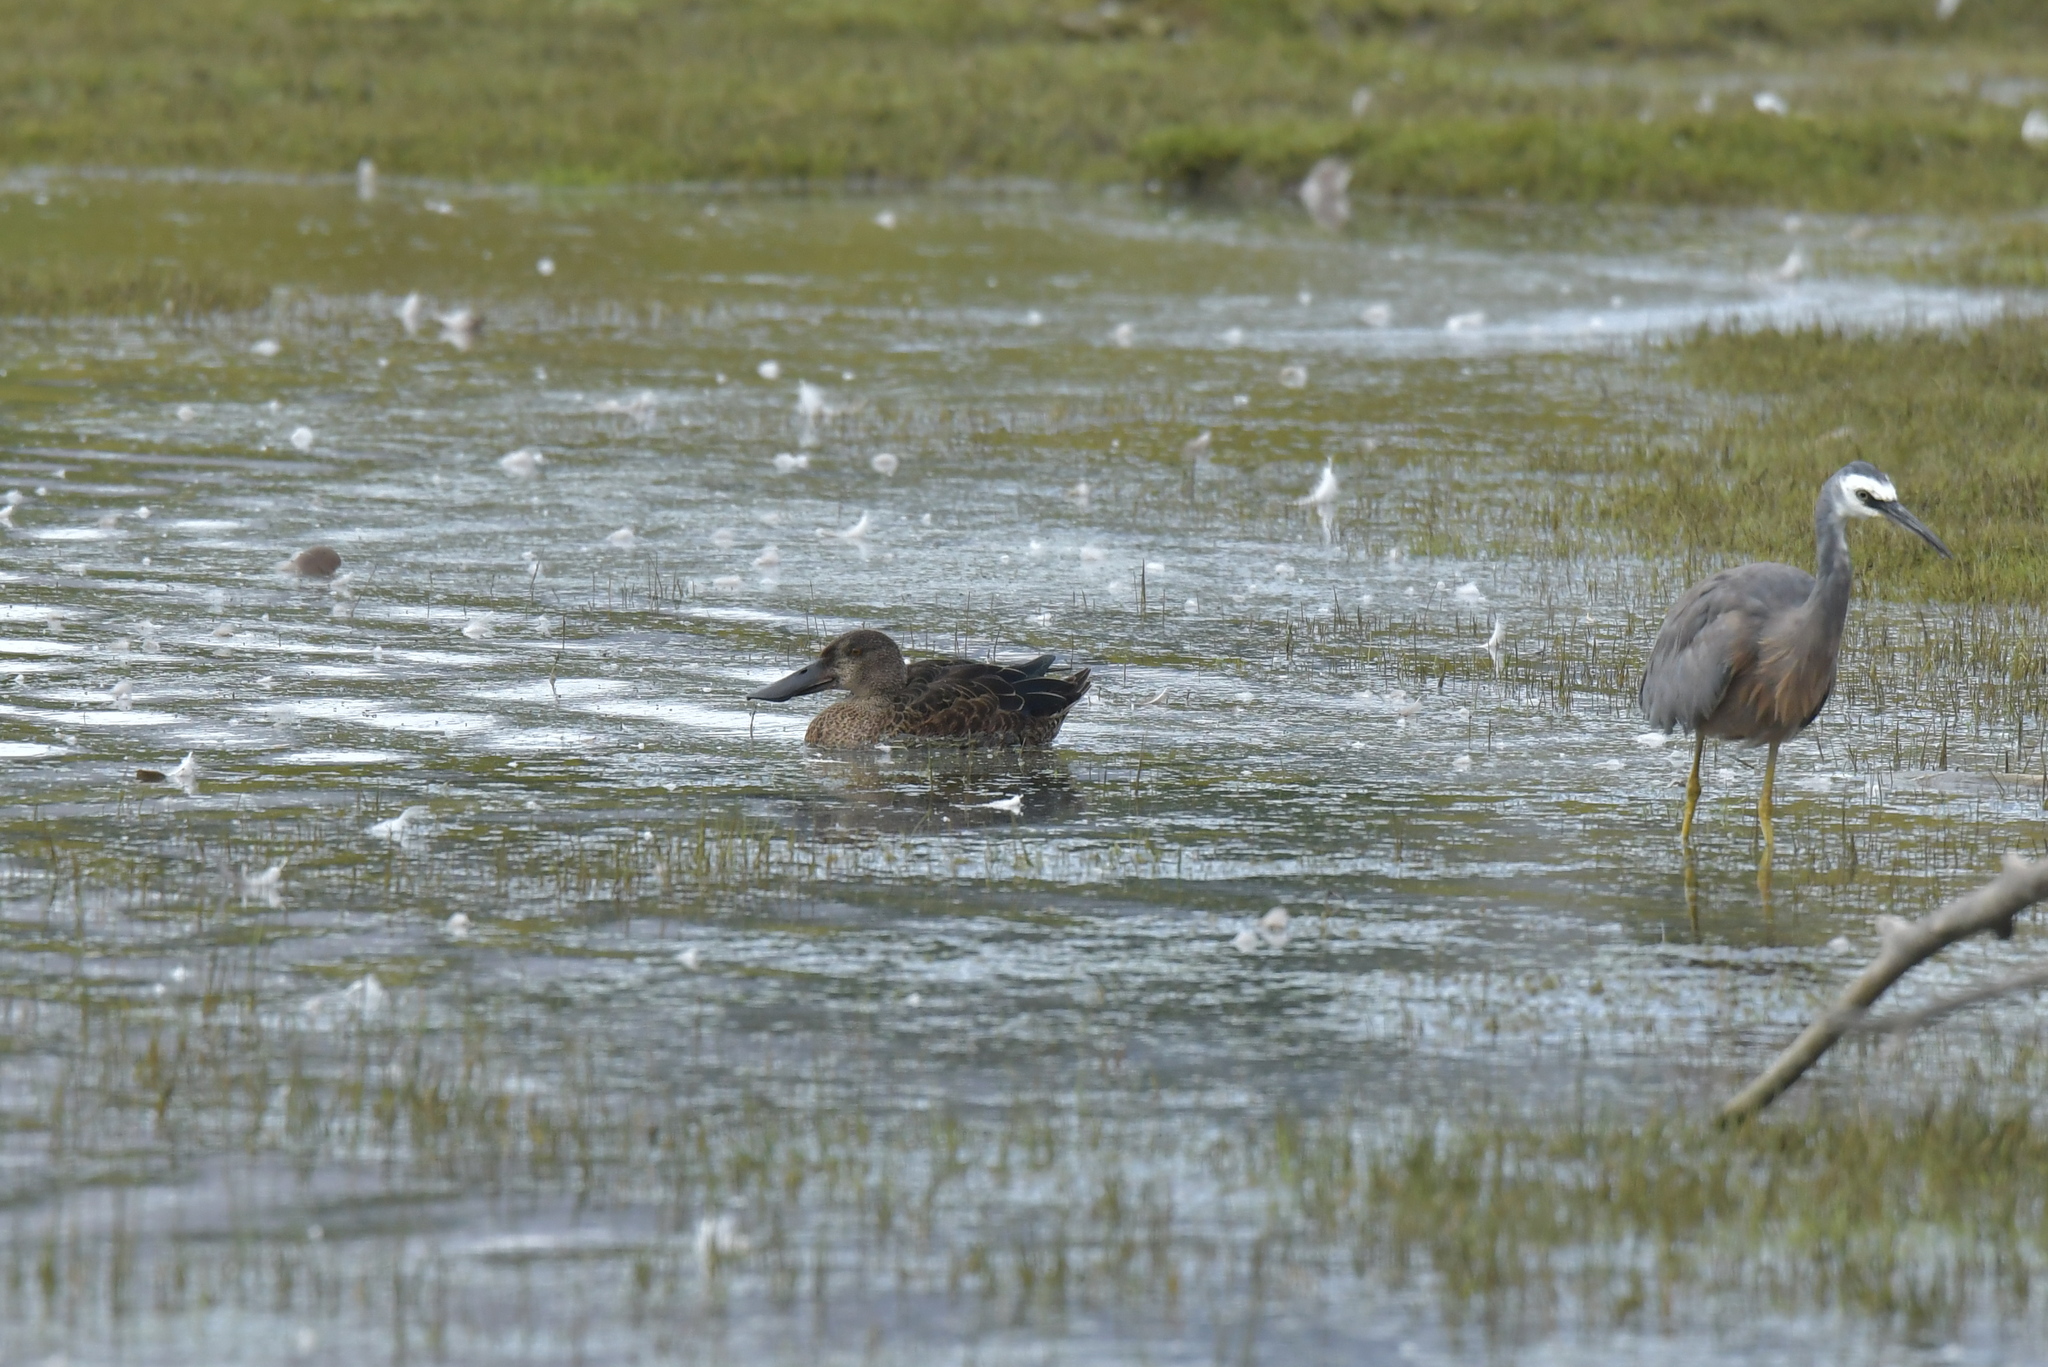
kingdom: Animalia
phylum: Chordata
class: Aves
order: Anseriformes
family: Anatidae
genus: Spatula
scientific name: Spatula rhynchotis
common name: Australian shoveler
